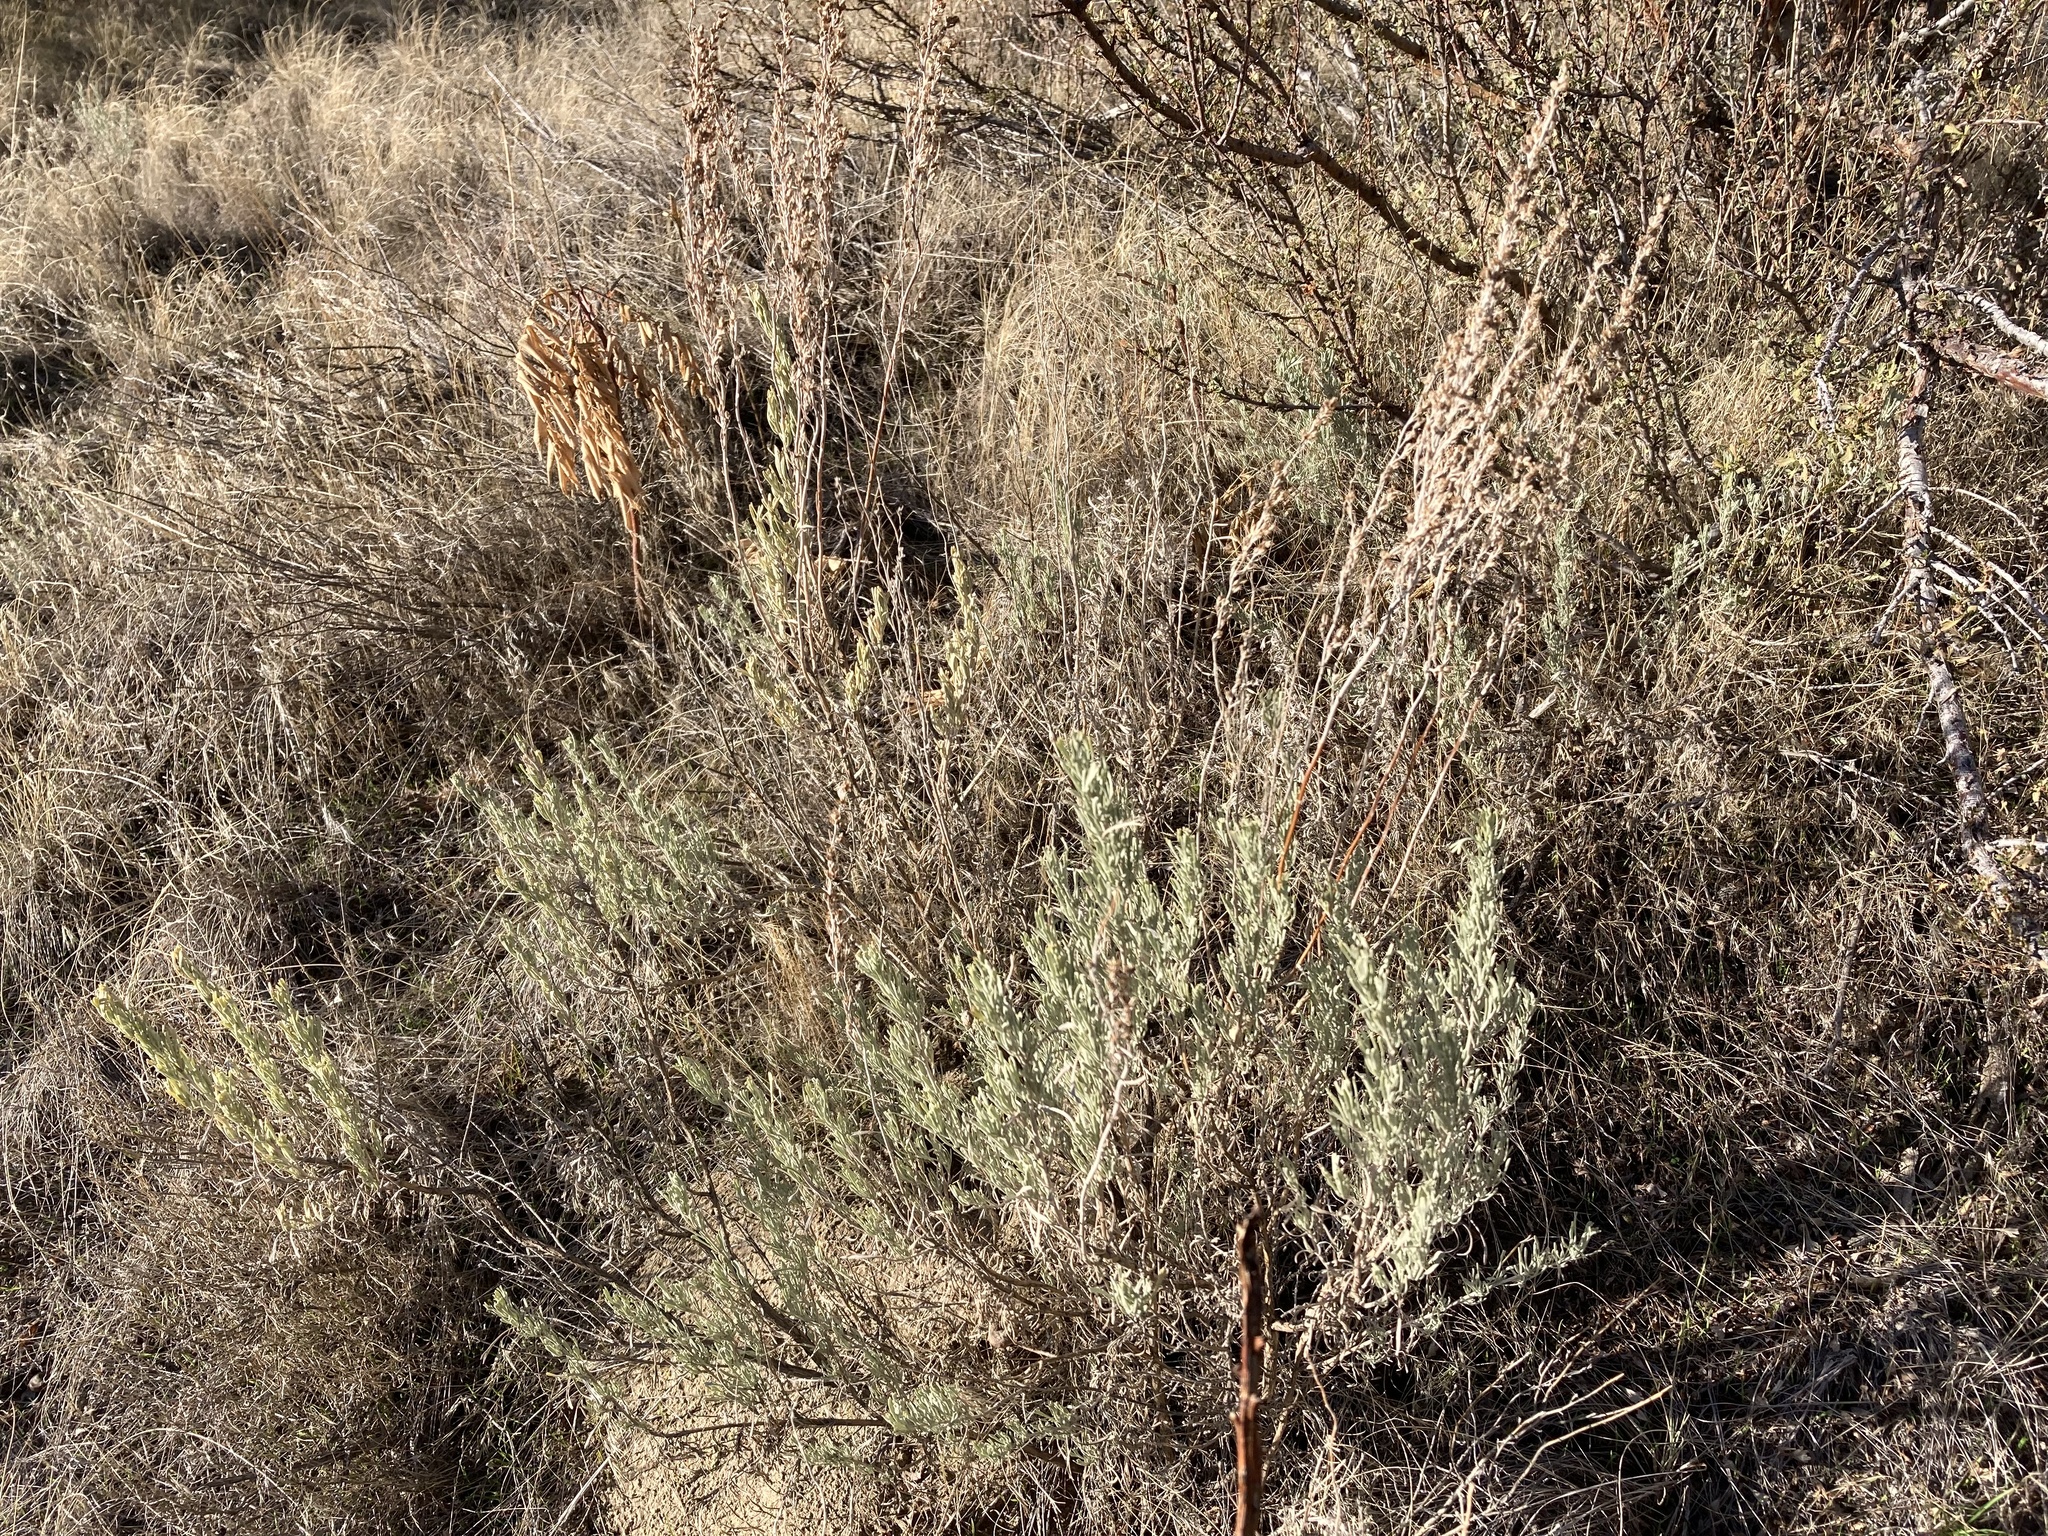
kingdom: Plantae
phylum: Tracheophyta
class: Magnoliopsida
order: Asterales
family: Asteraceae
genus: Artemisia
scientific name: Artemisia tripartita
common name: Three-tip sagebrush
